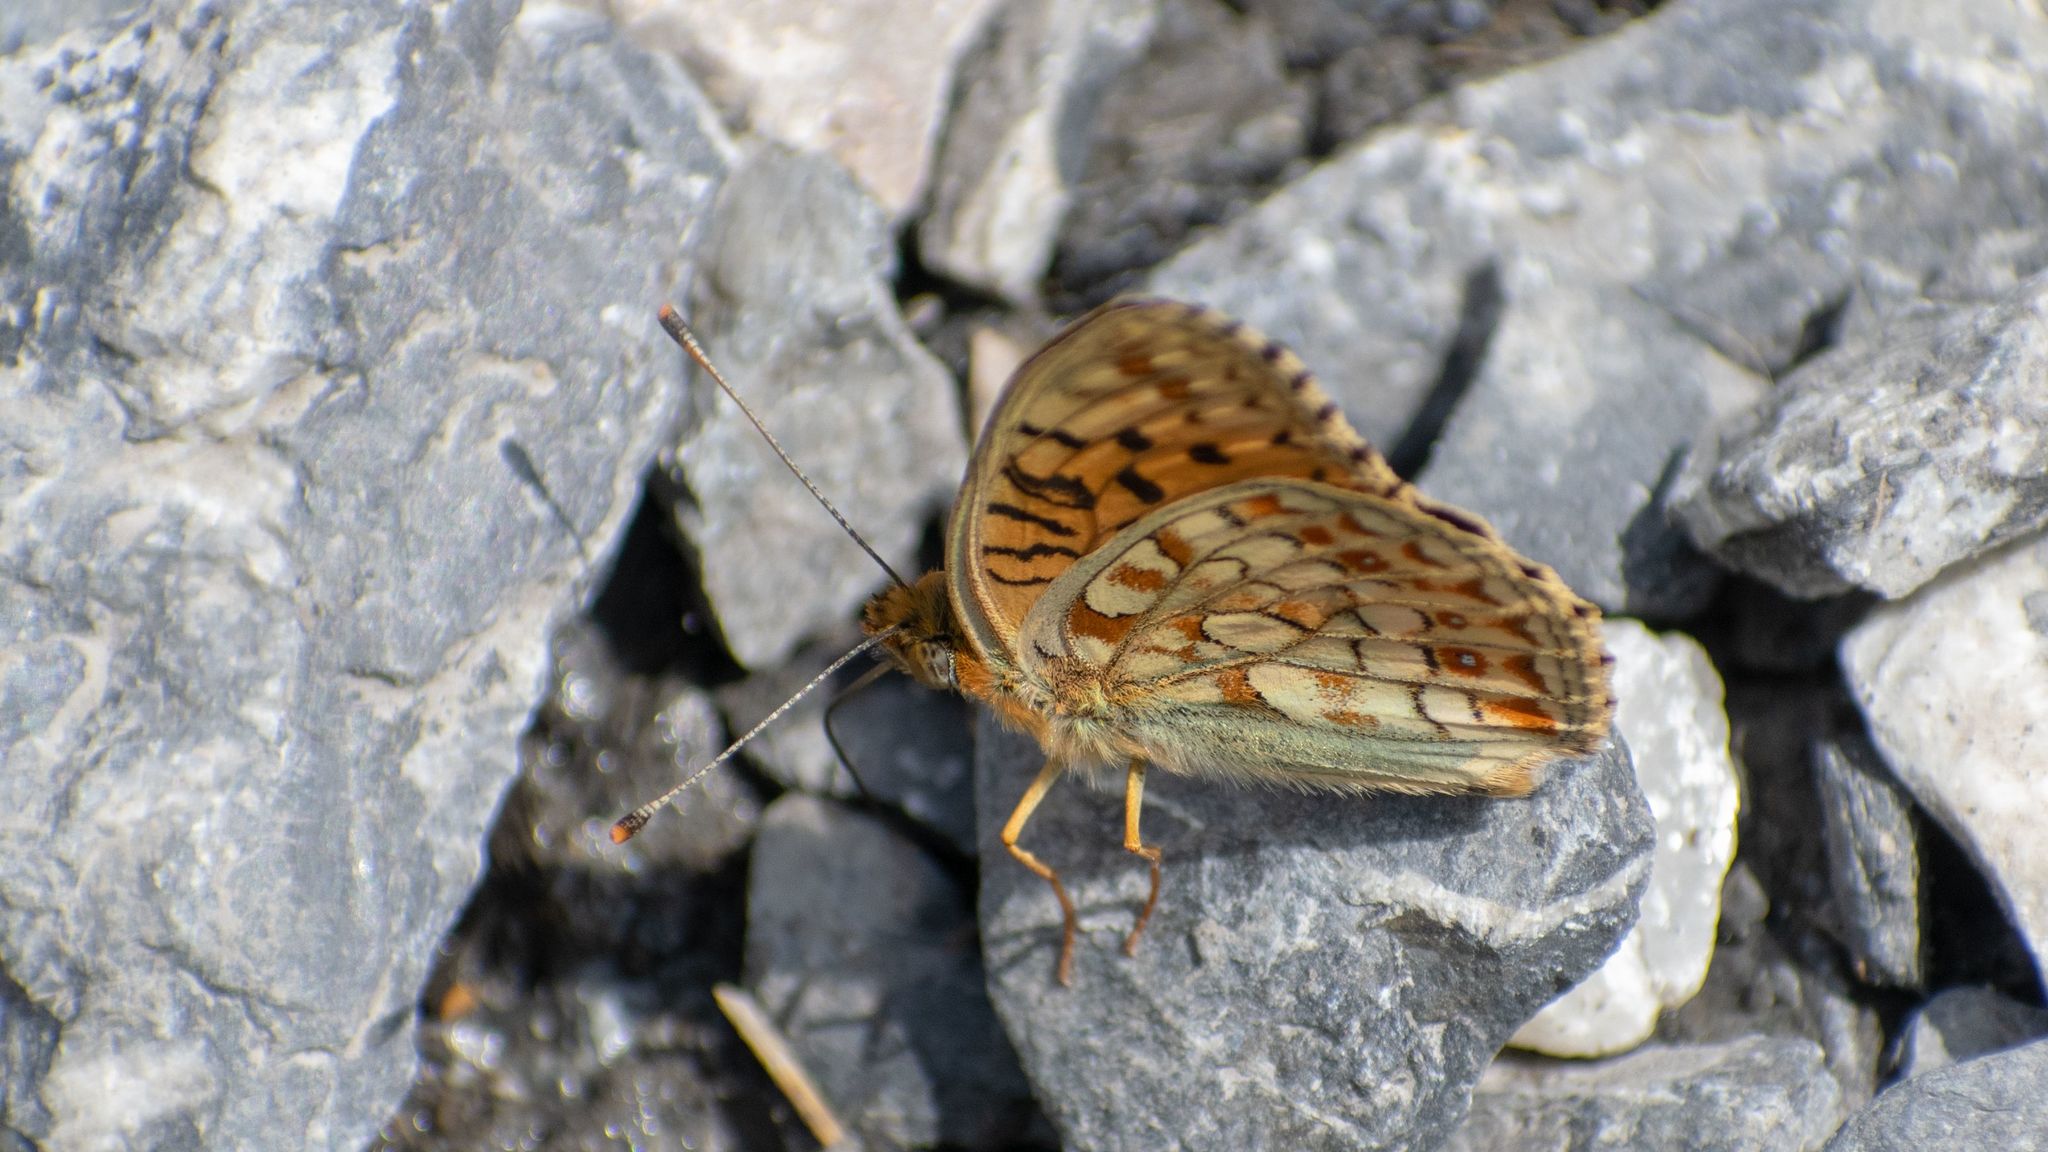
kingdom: Animalia
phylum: Arthropoda
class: Insecta
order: Lepidoptera
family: Nymphalidae
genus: Fabriciana
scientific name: Fabriciana niobe
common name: Niobe fritillary
